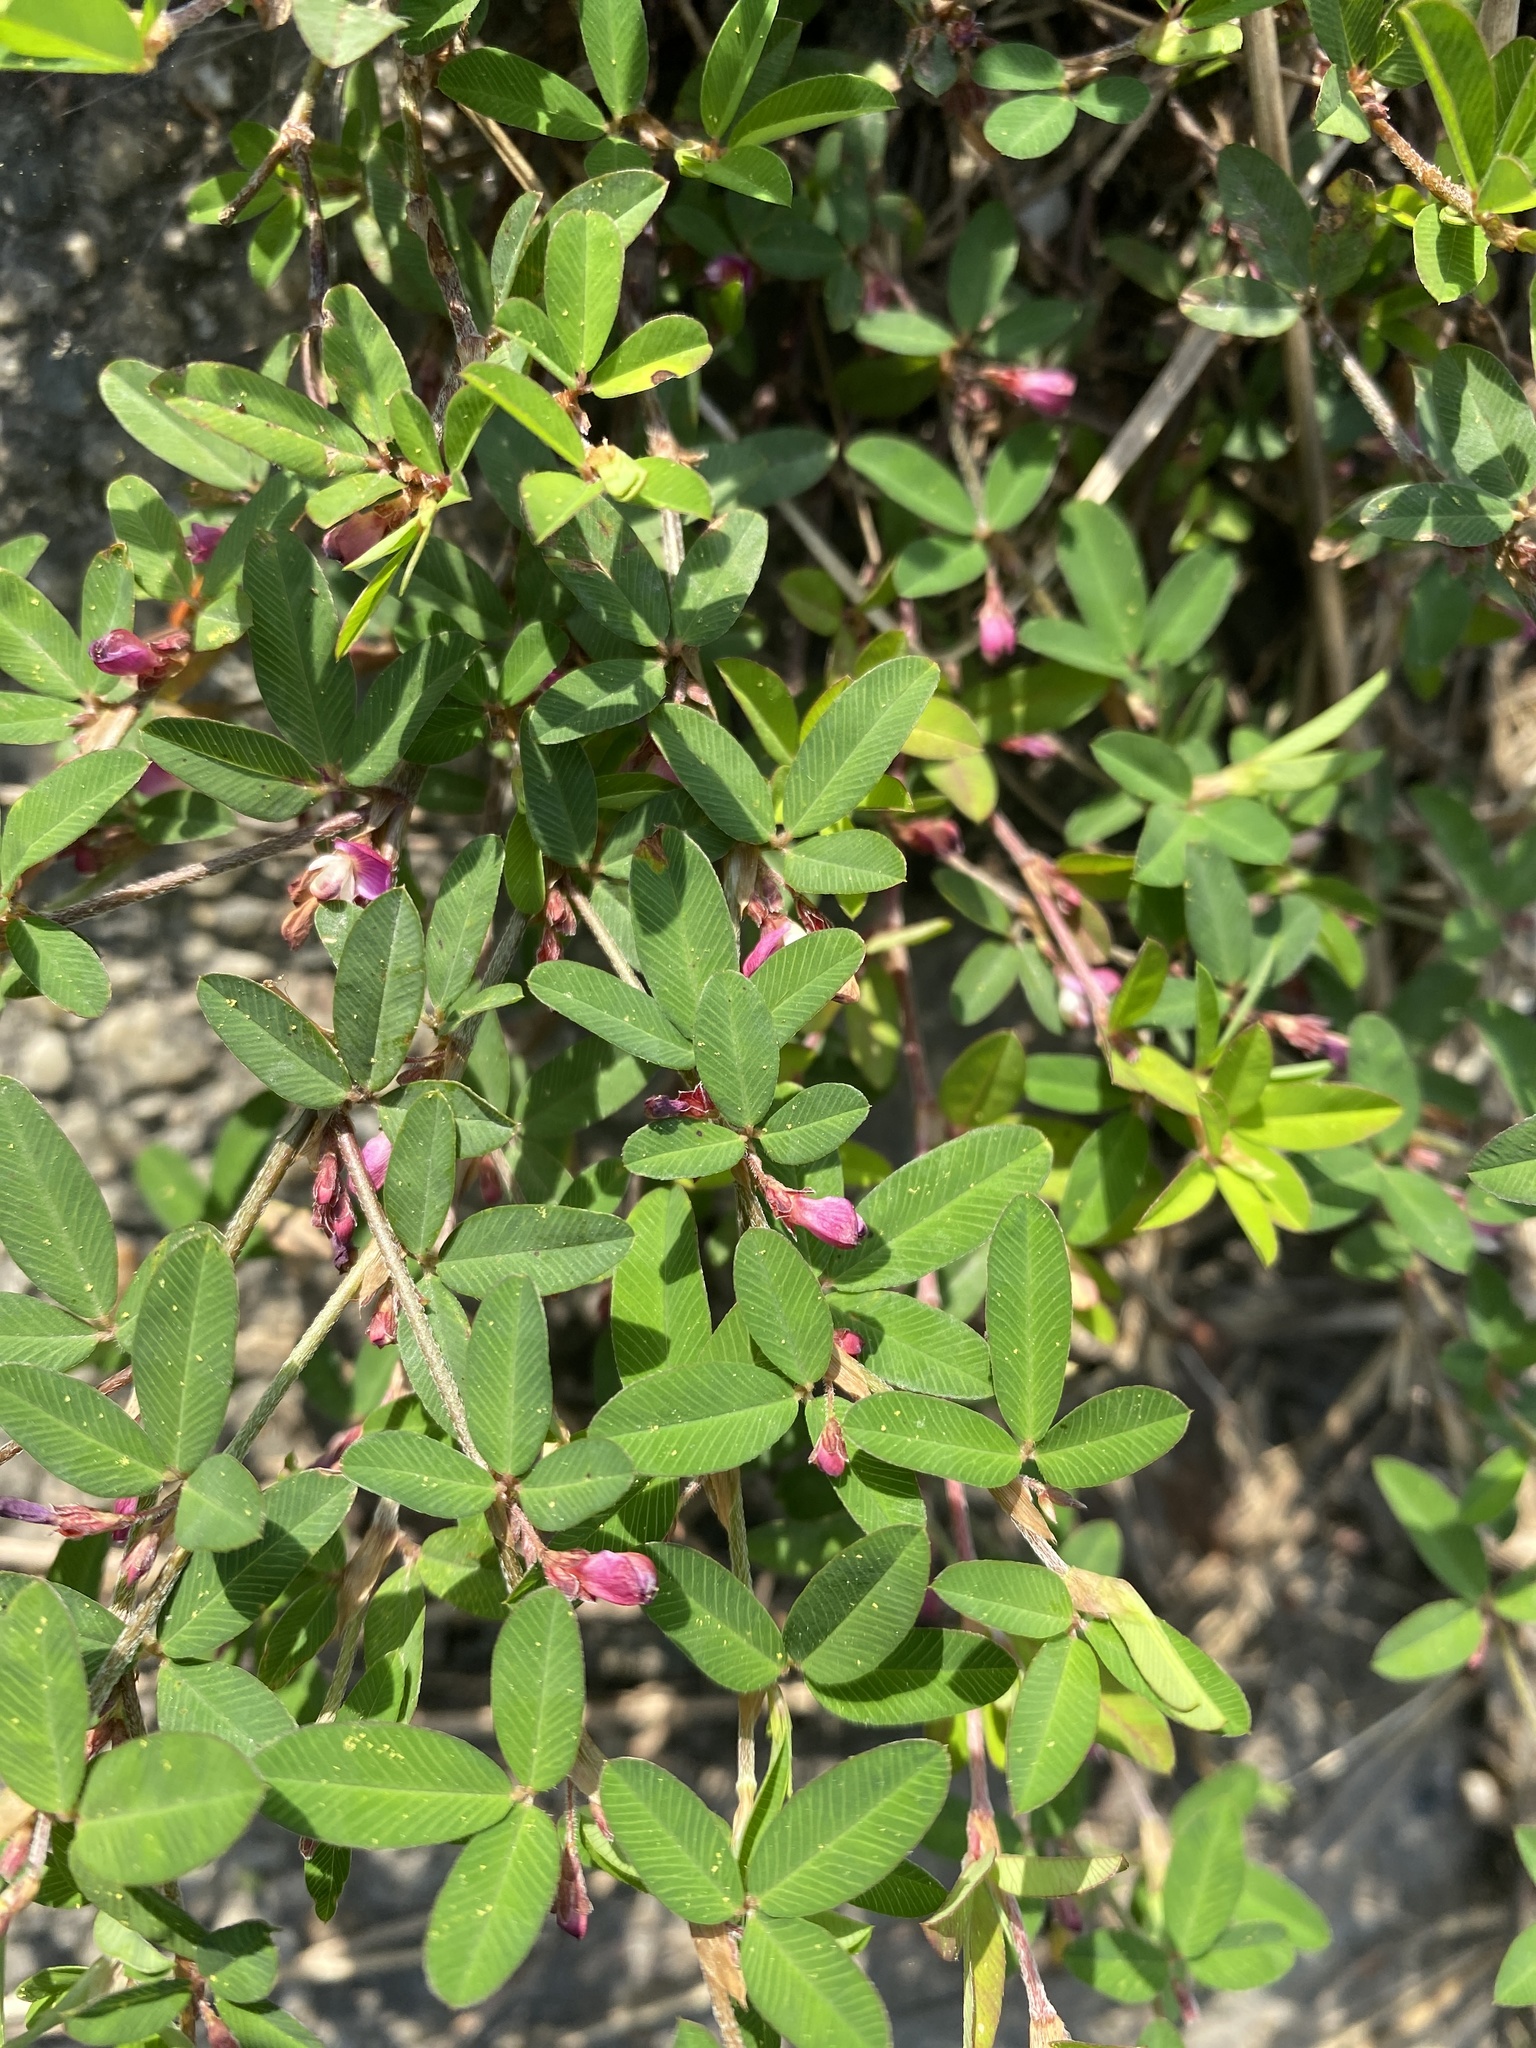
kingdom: Plantae
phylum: Tracheophyta
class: Magnoliopsida
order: Fabales
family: Fabaceae
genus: Kummerowia
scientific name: Kummerowia striata
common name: Japanese clover
